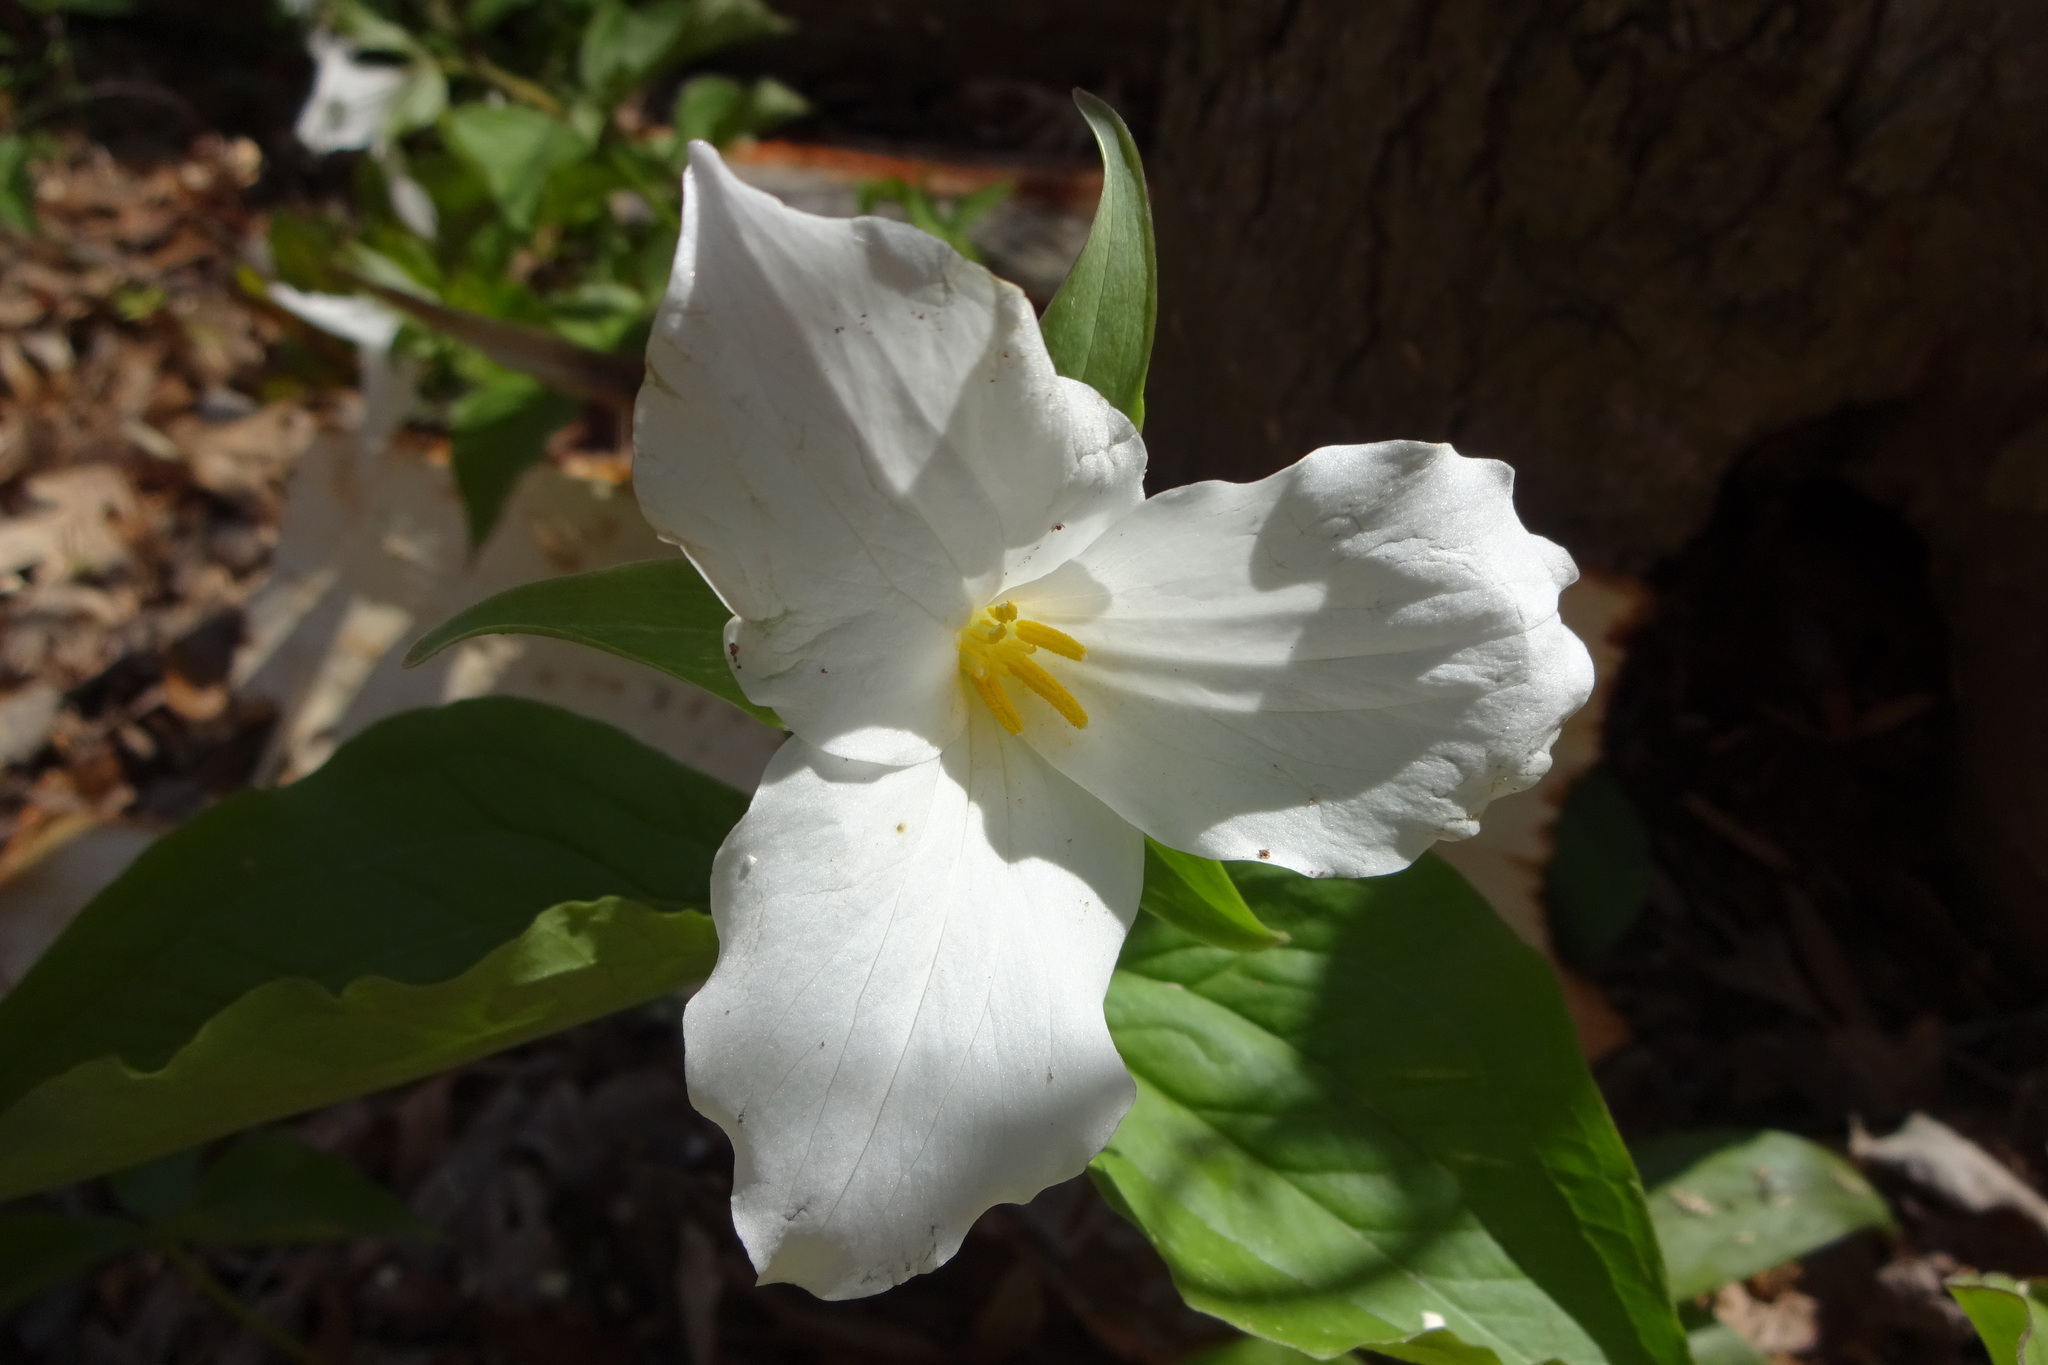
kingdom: Plantae
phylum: Tracheophyta
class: Liliopsida
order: Liliales
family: Melanthiaceae
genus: Trillium
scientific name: Trillium grandiflorum
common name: Great white trillium
